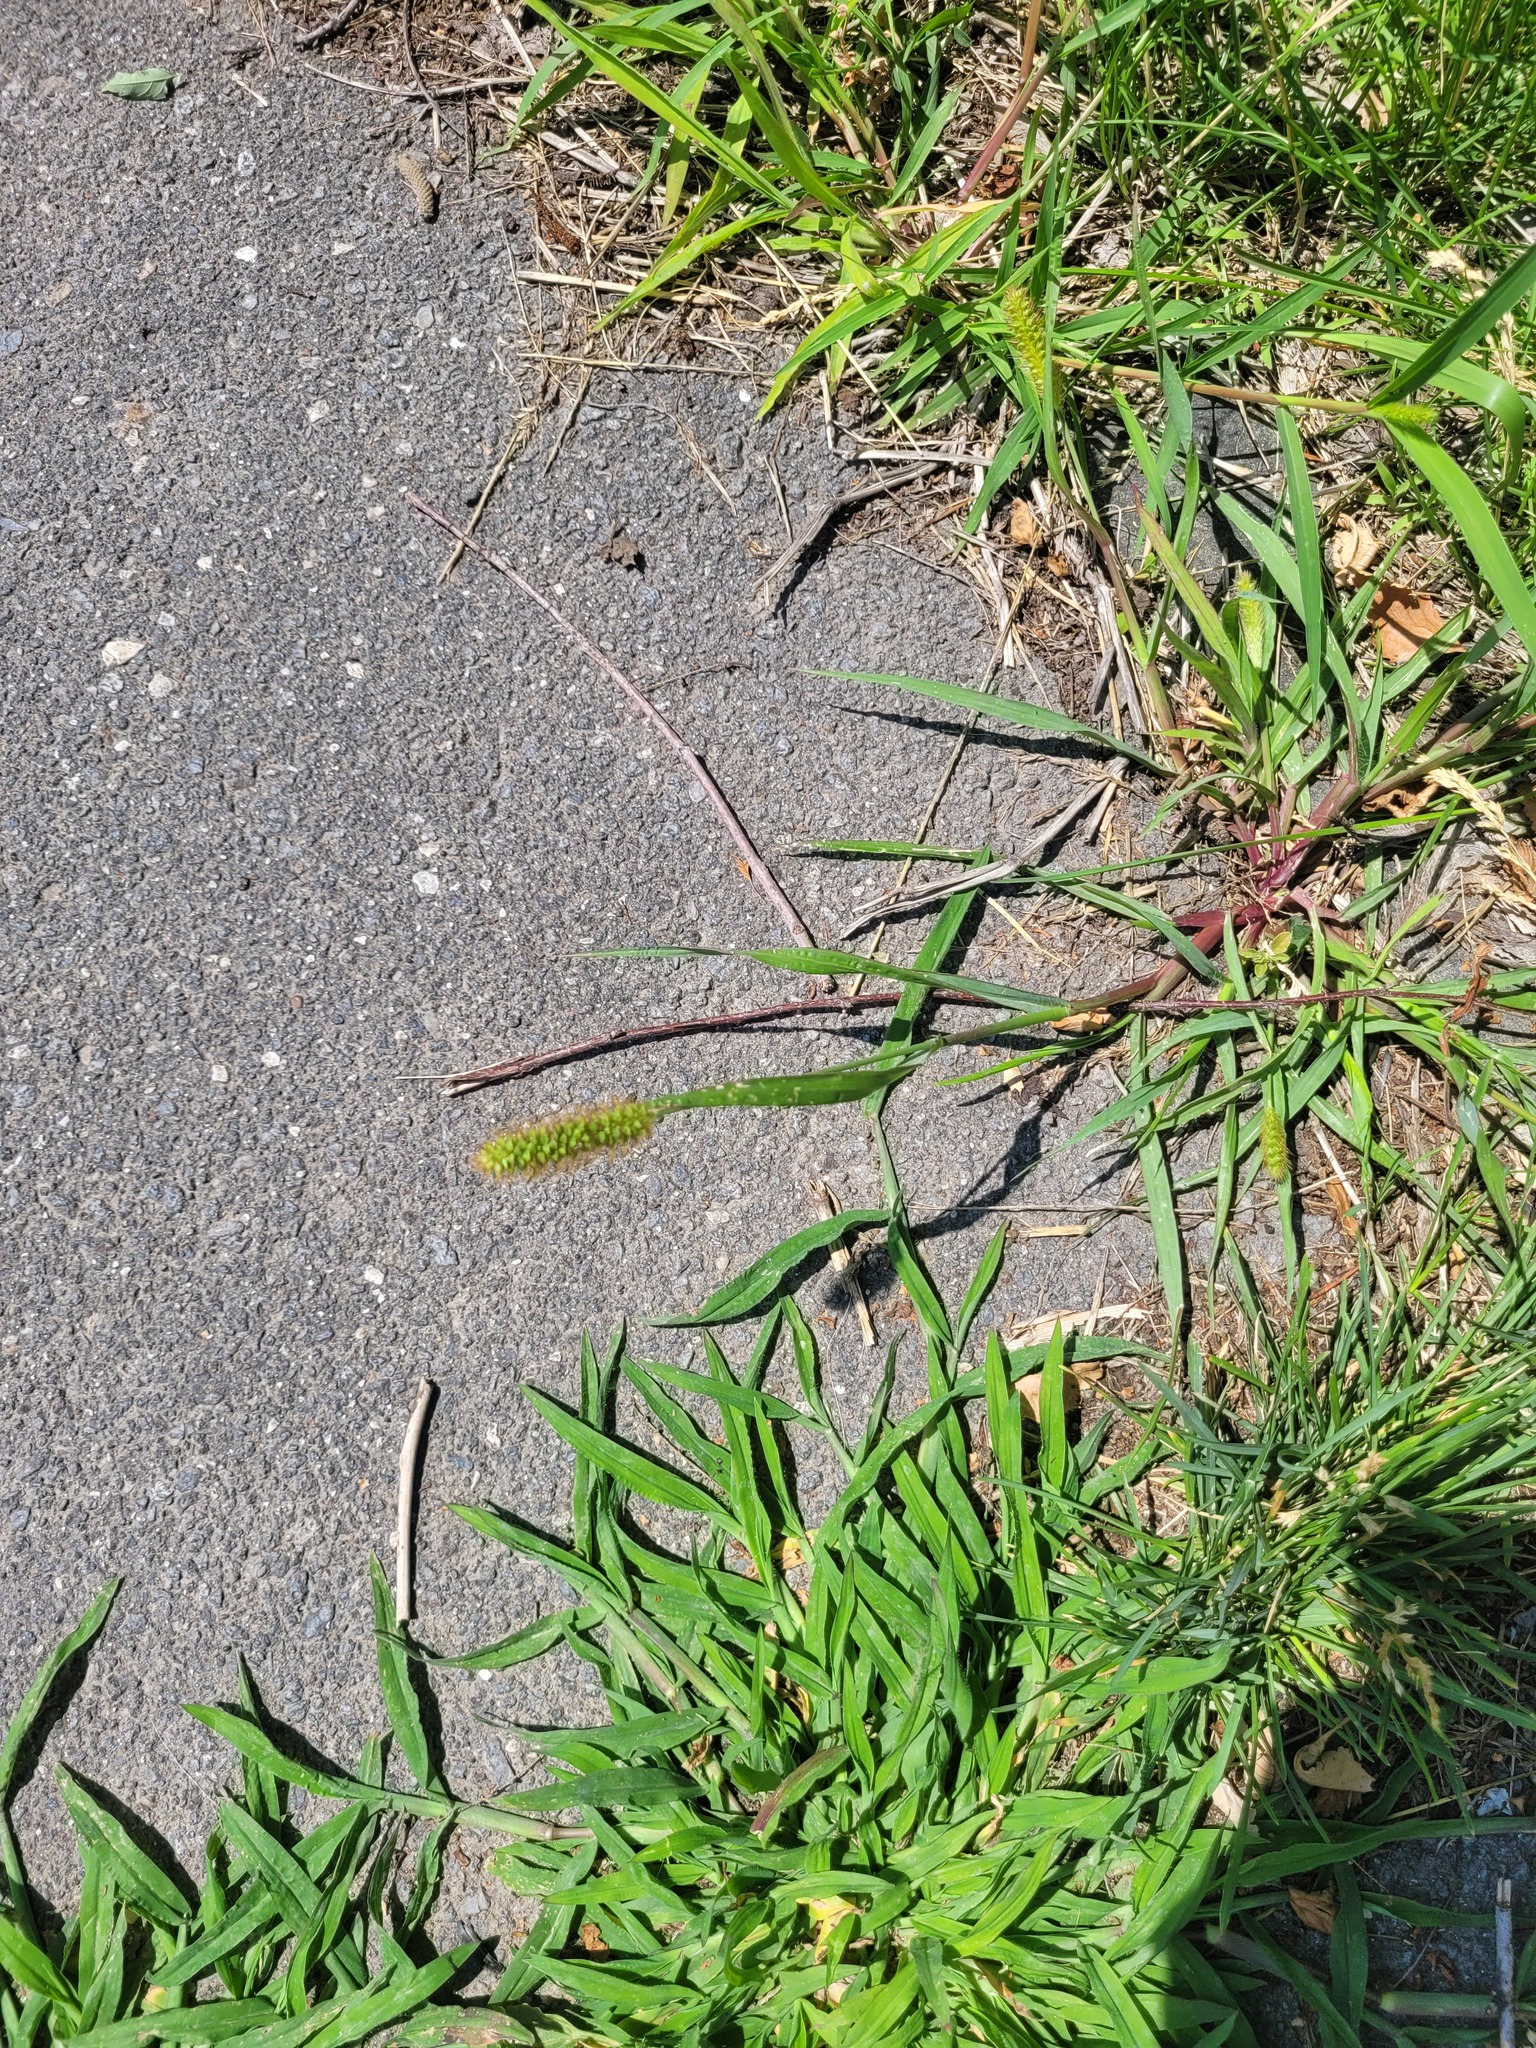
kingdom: Plantae
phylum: Tracheophyta
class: Liliopsida
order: Poales
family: Poaceae
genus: Setaria
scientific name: Setaria pumila
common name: Yellow bristle-grass
